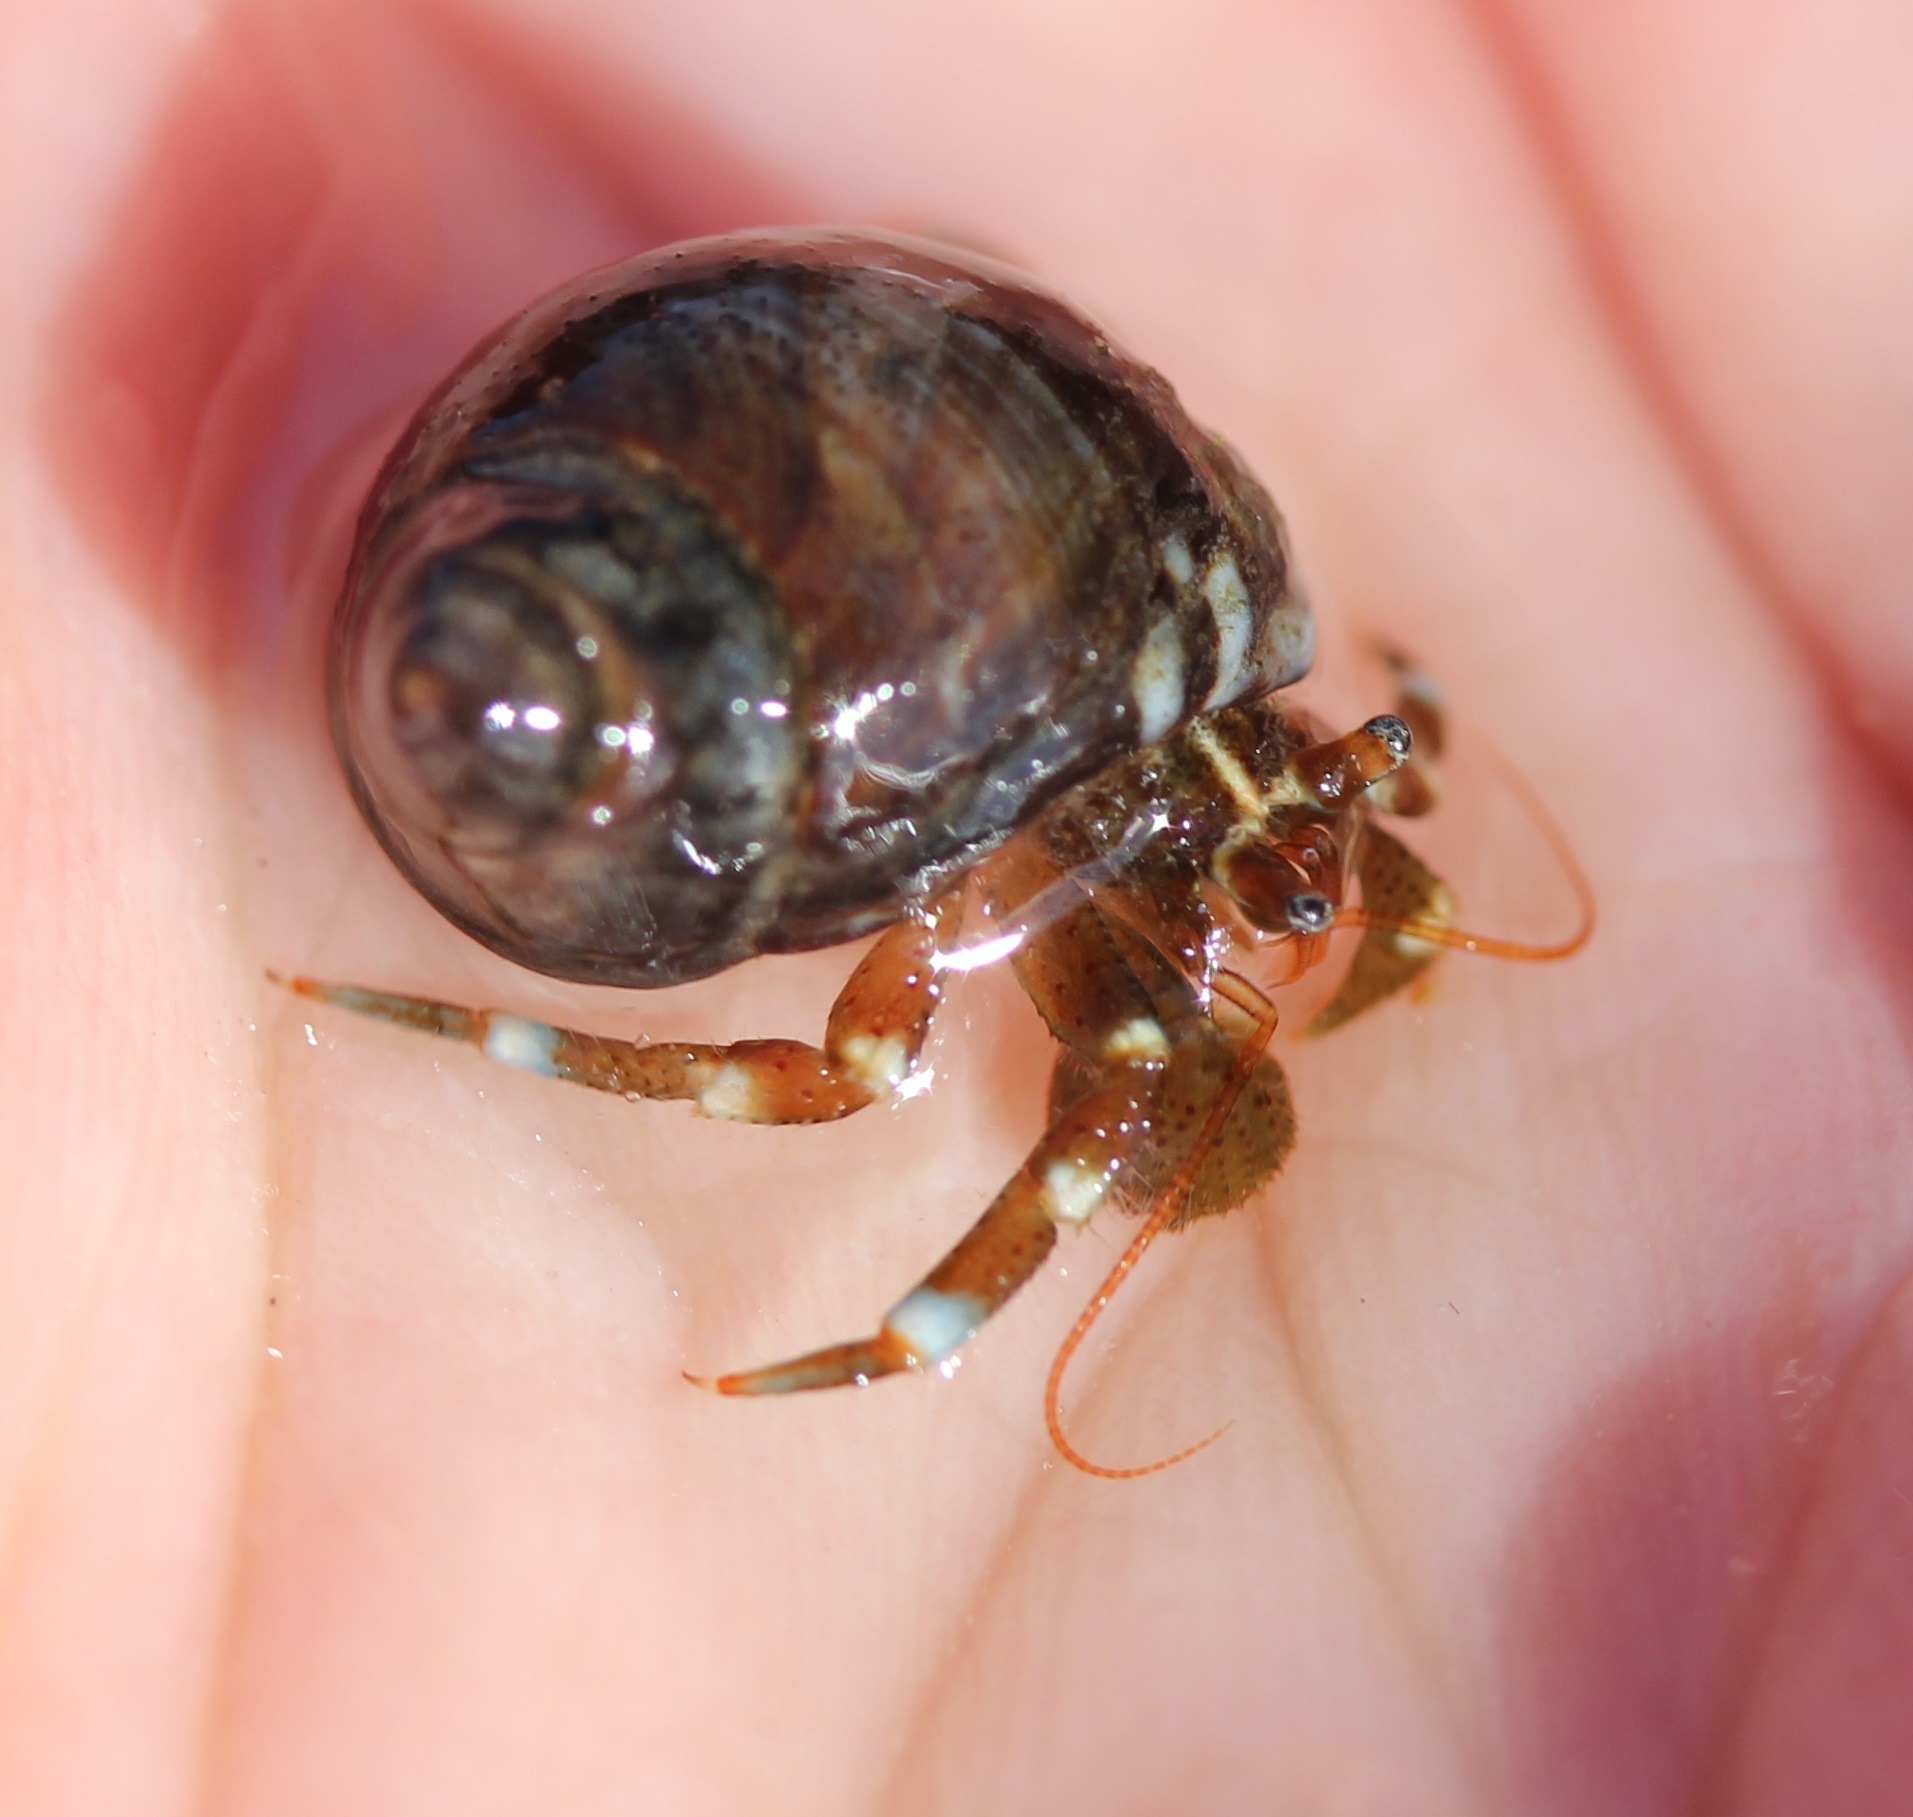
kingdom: Animalia
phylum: Arthropoda
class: Malacostraca
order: Decapoda
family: Paguridae
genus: Pagurus
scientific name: Pagurus samuelis
